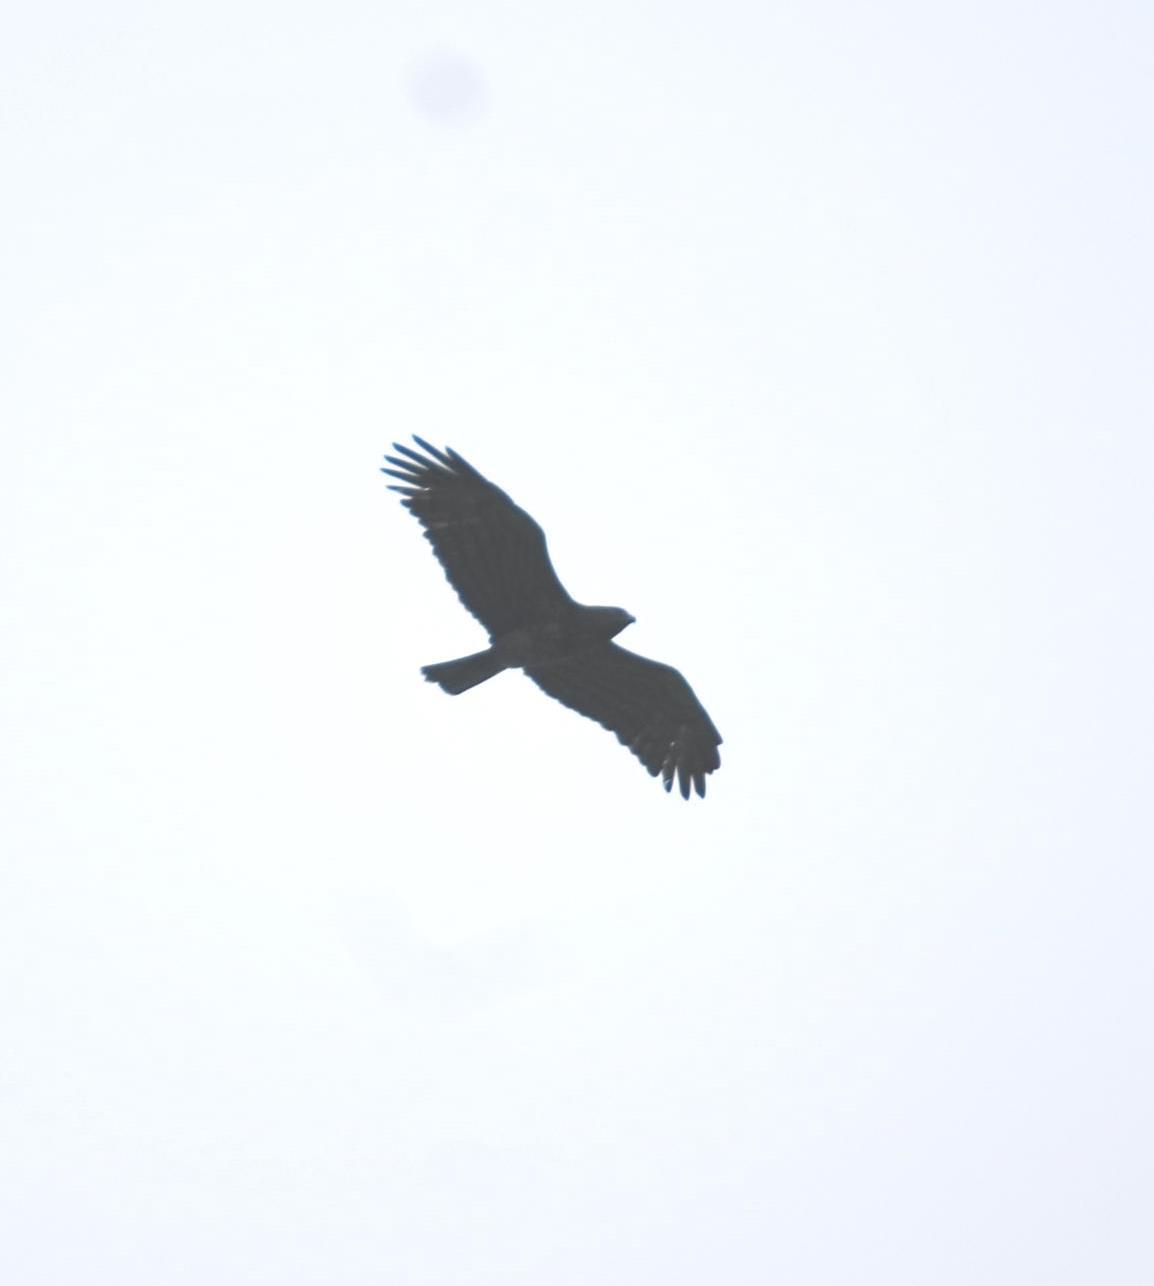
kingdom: Animalia
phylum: Chordata
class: Aves
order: Accipitriformes
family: Accipitridae
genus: Circaetus
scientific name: Circaetus gallicus
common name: Short-toed snake eagle
